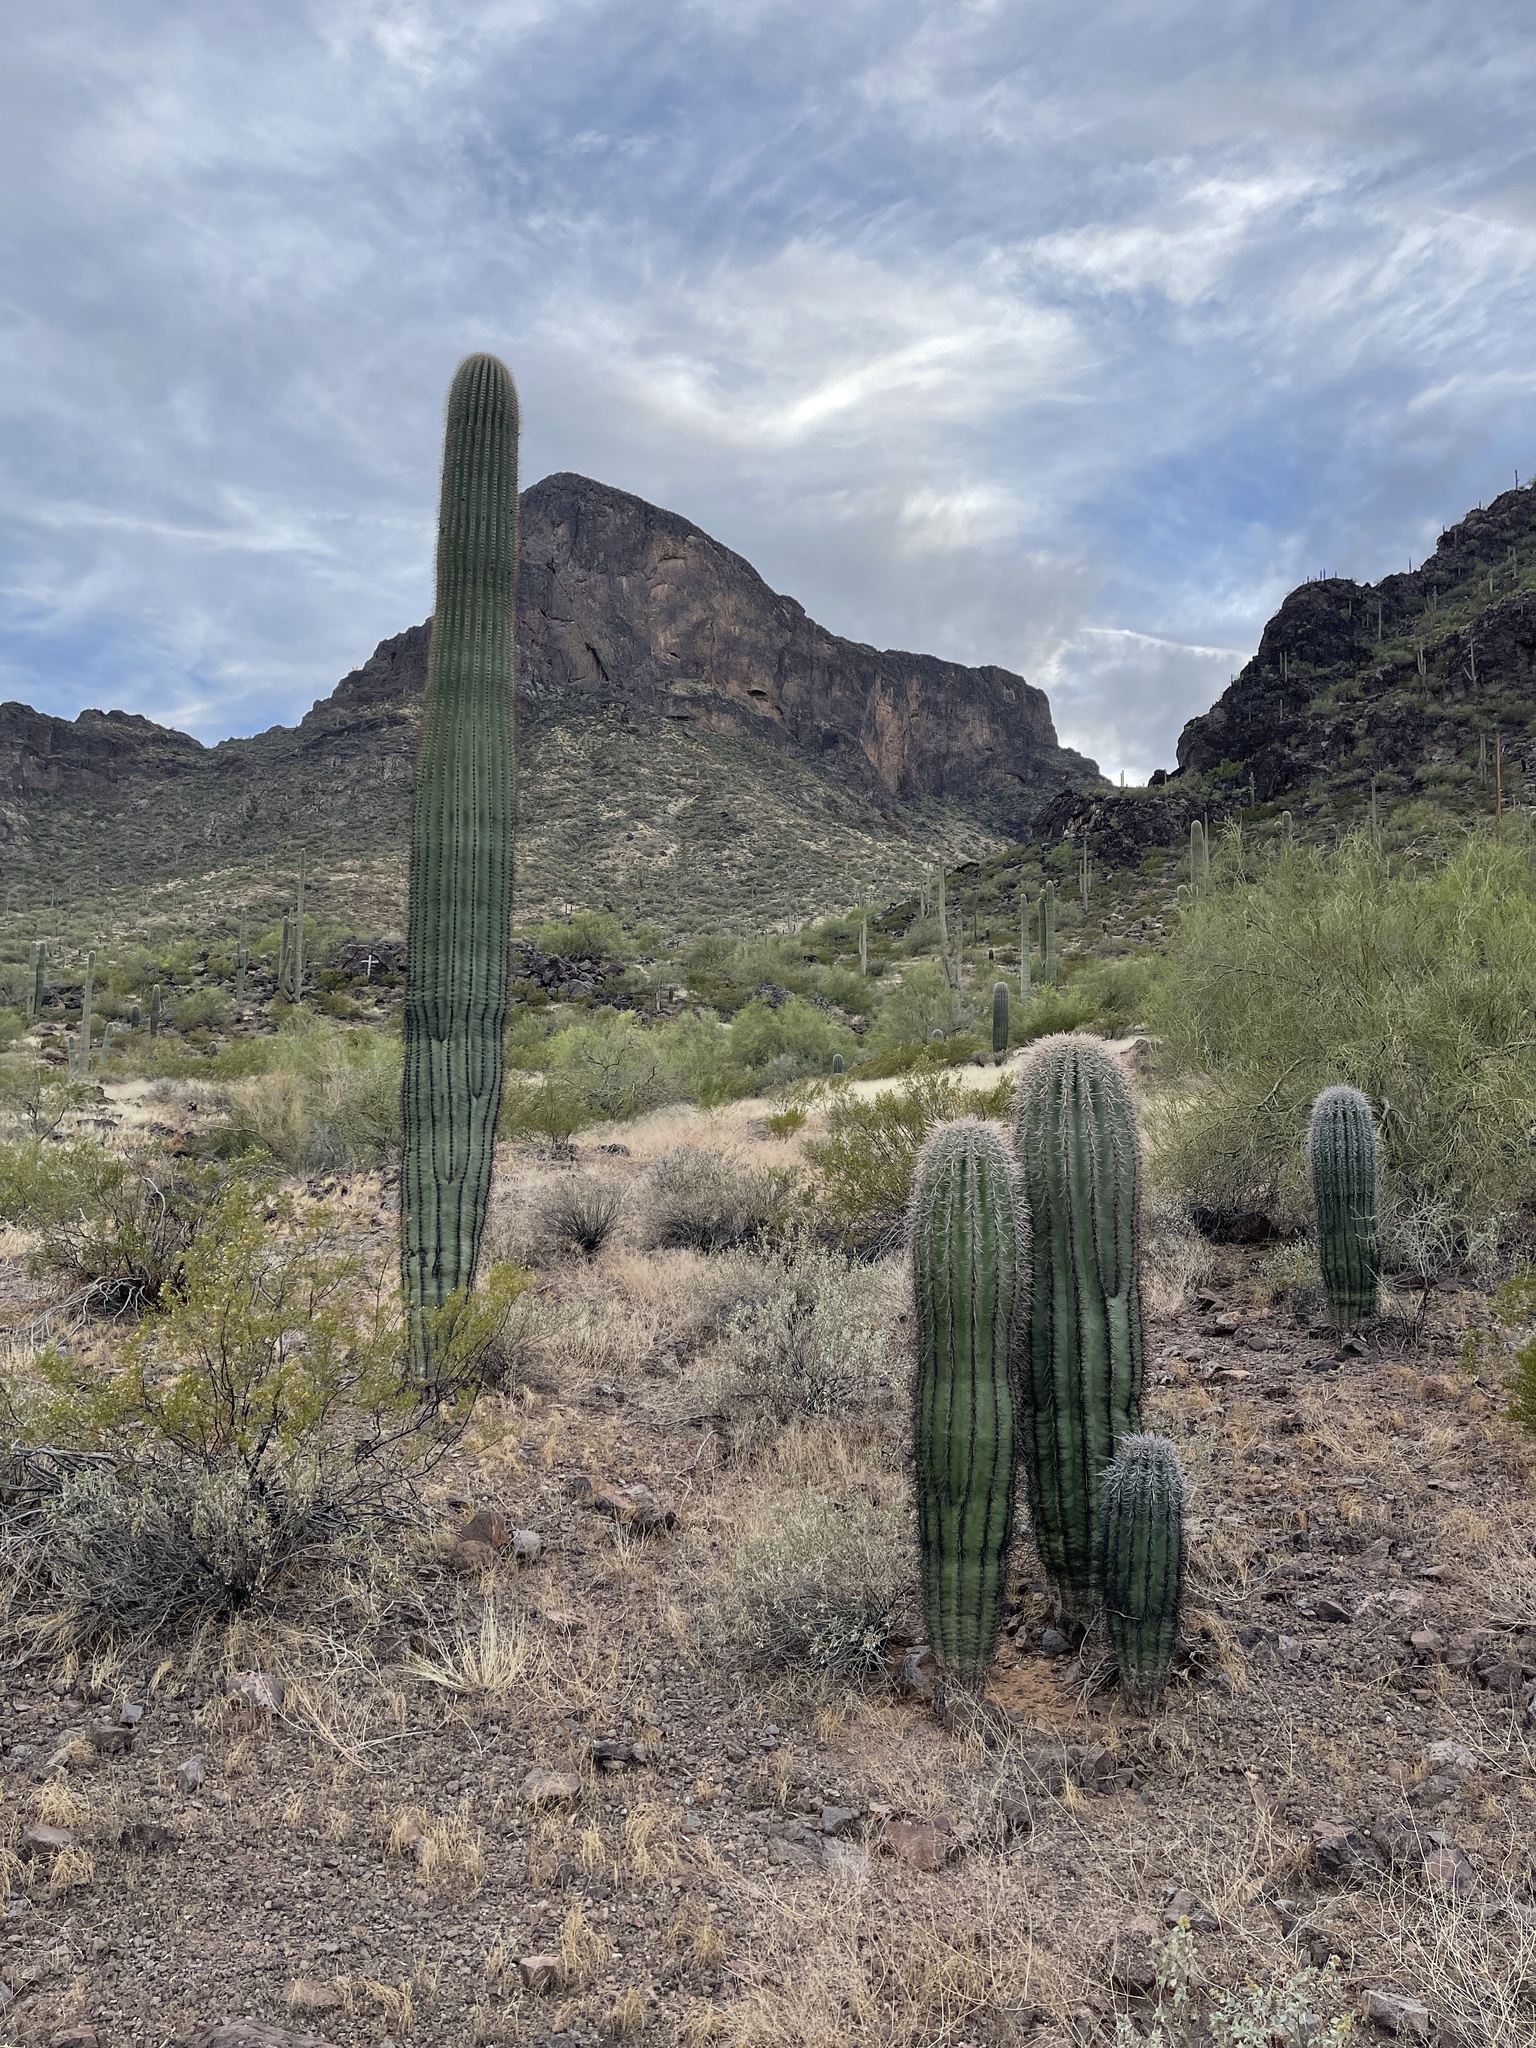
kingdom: Plantae
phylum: Tracheophyta
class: Magnoliopsida
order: Caryophyllales
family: Cactaceae
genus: Carnegiea
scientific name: Carnegiea gigantea
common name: Saguaro
